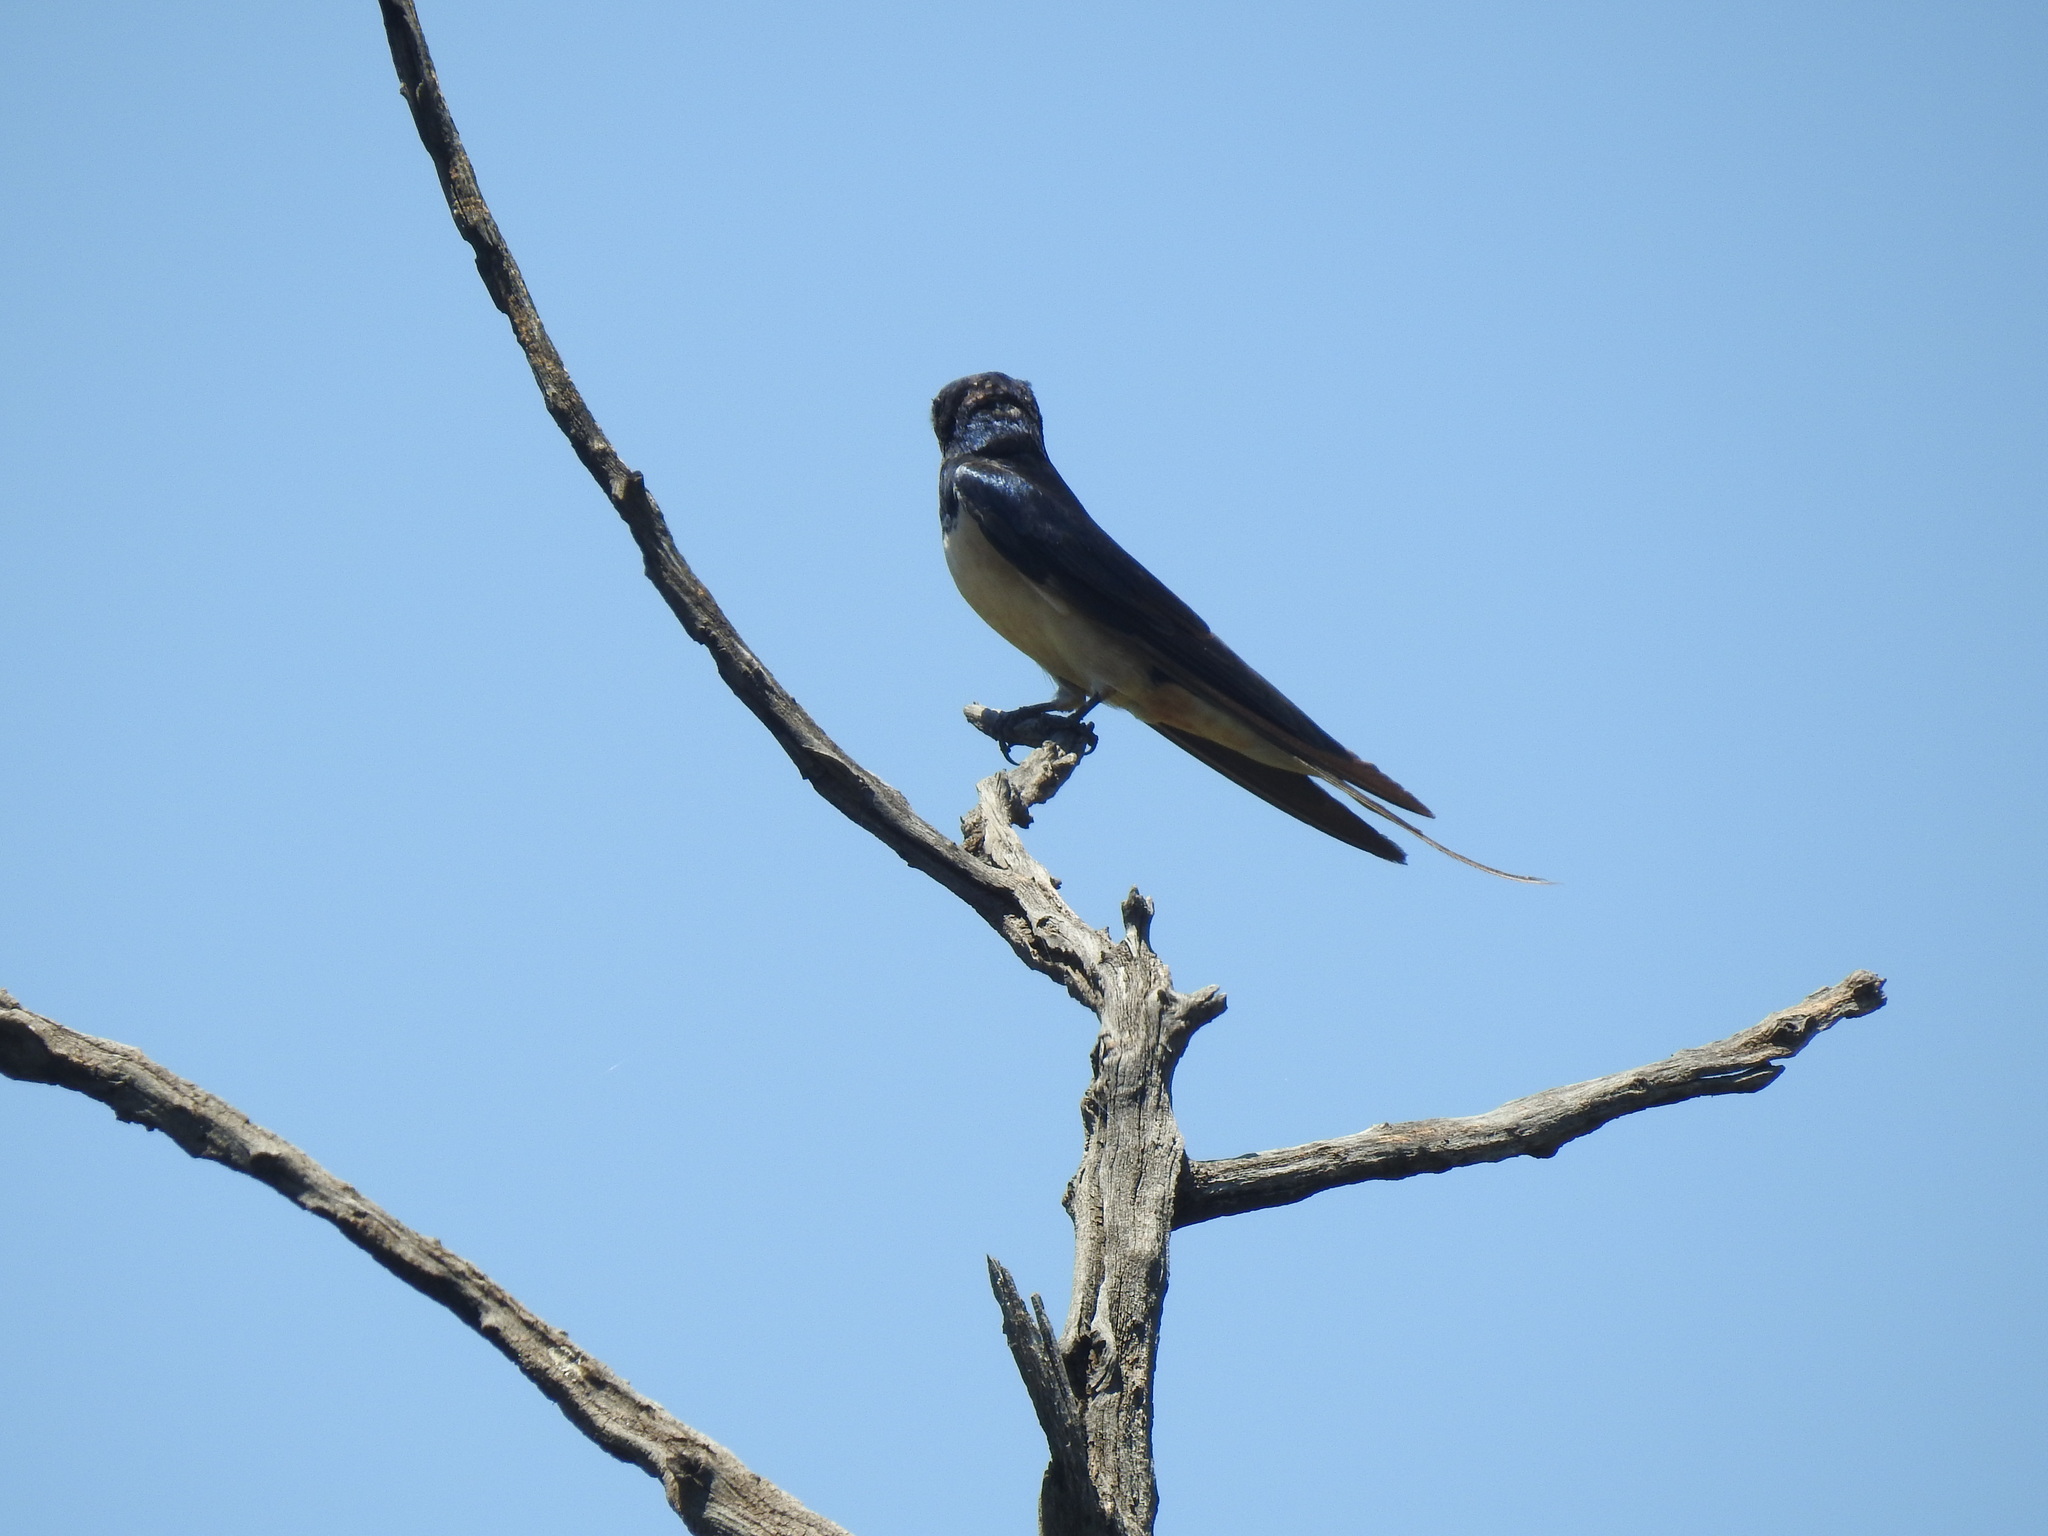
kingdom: Animalia
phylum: Chordata
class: Aves
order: Passeriformes
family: Hirundinidae
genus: Hirundo
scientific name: Hirundo rustica
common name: Barn swallow
